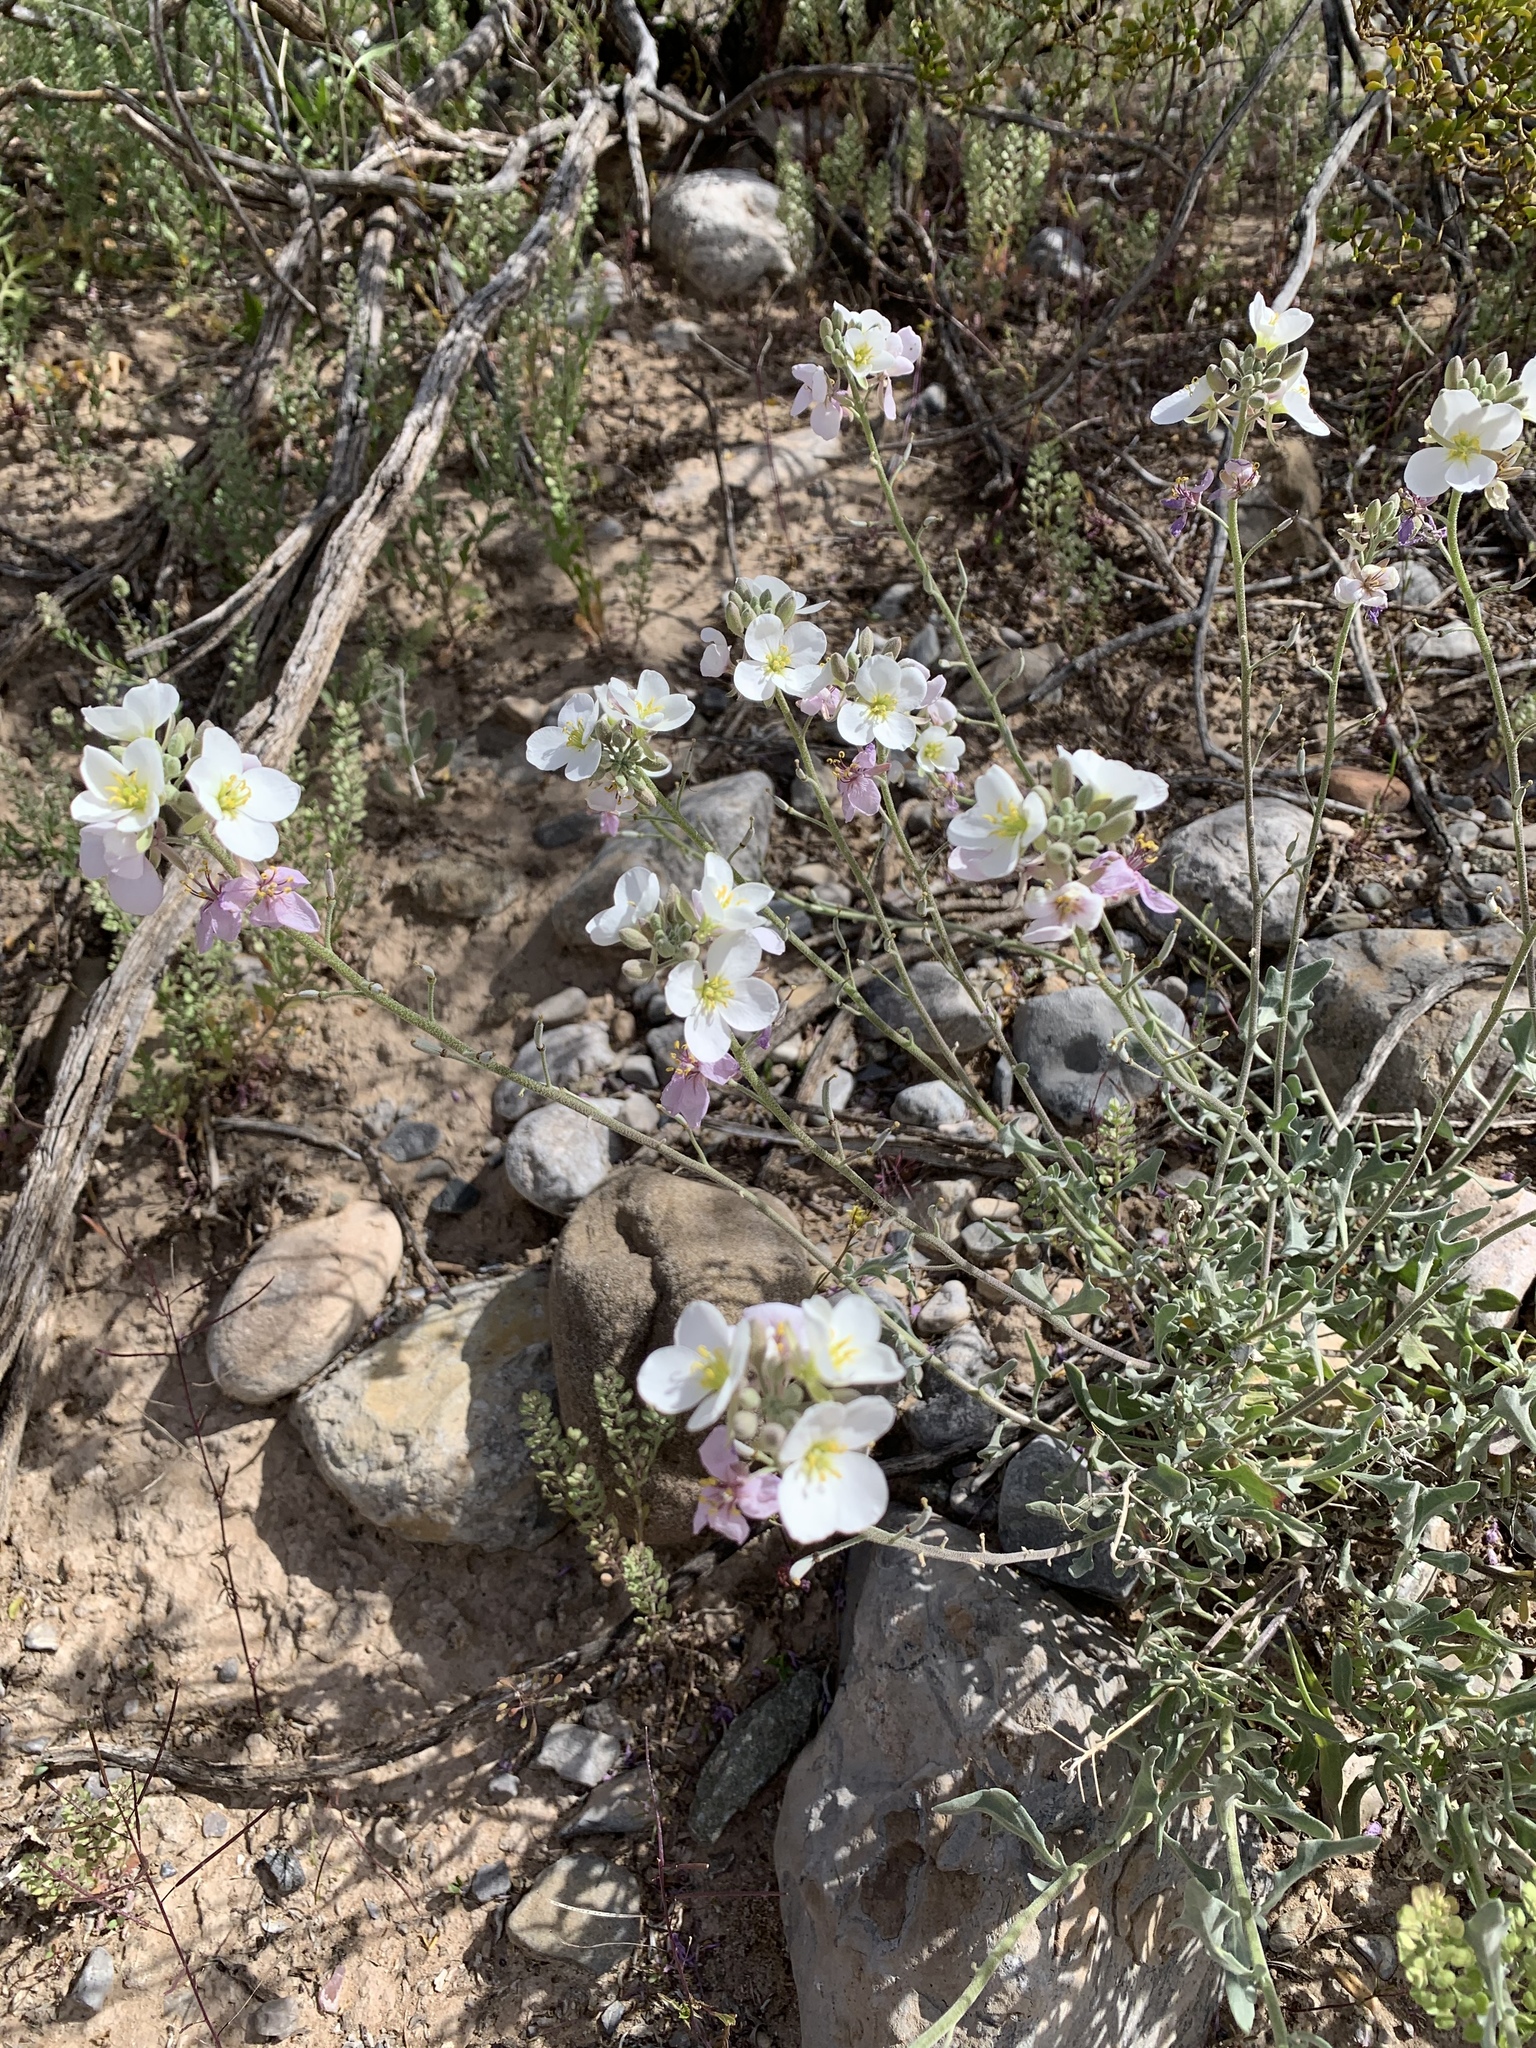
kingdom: Plantae
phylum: Tracheophyta
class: Magnoliopsida
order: Brassicales
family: Brassicaceae
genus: Nerisyrenia
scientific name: Nerisyrenia camporum
